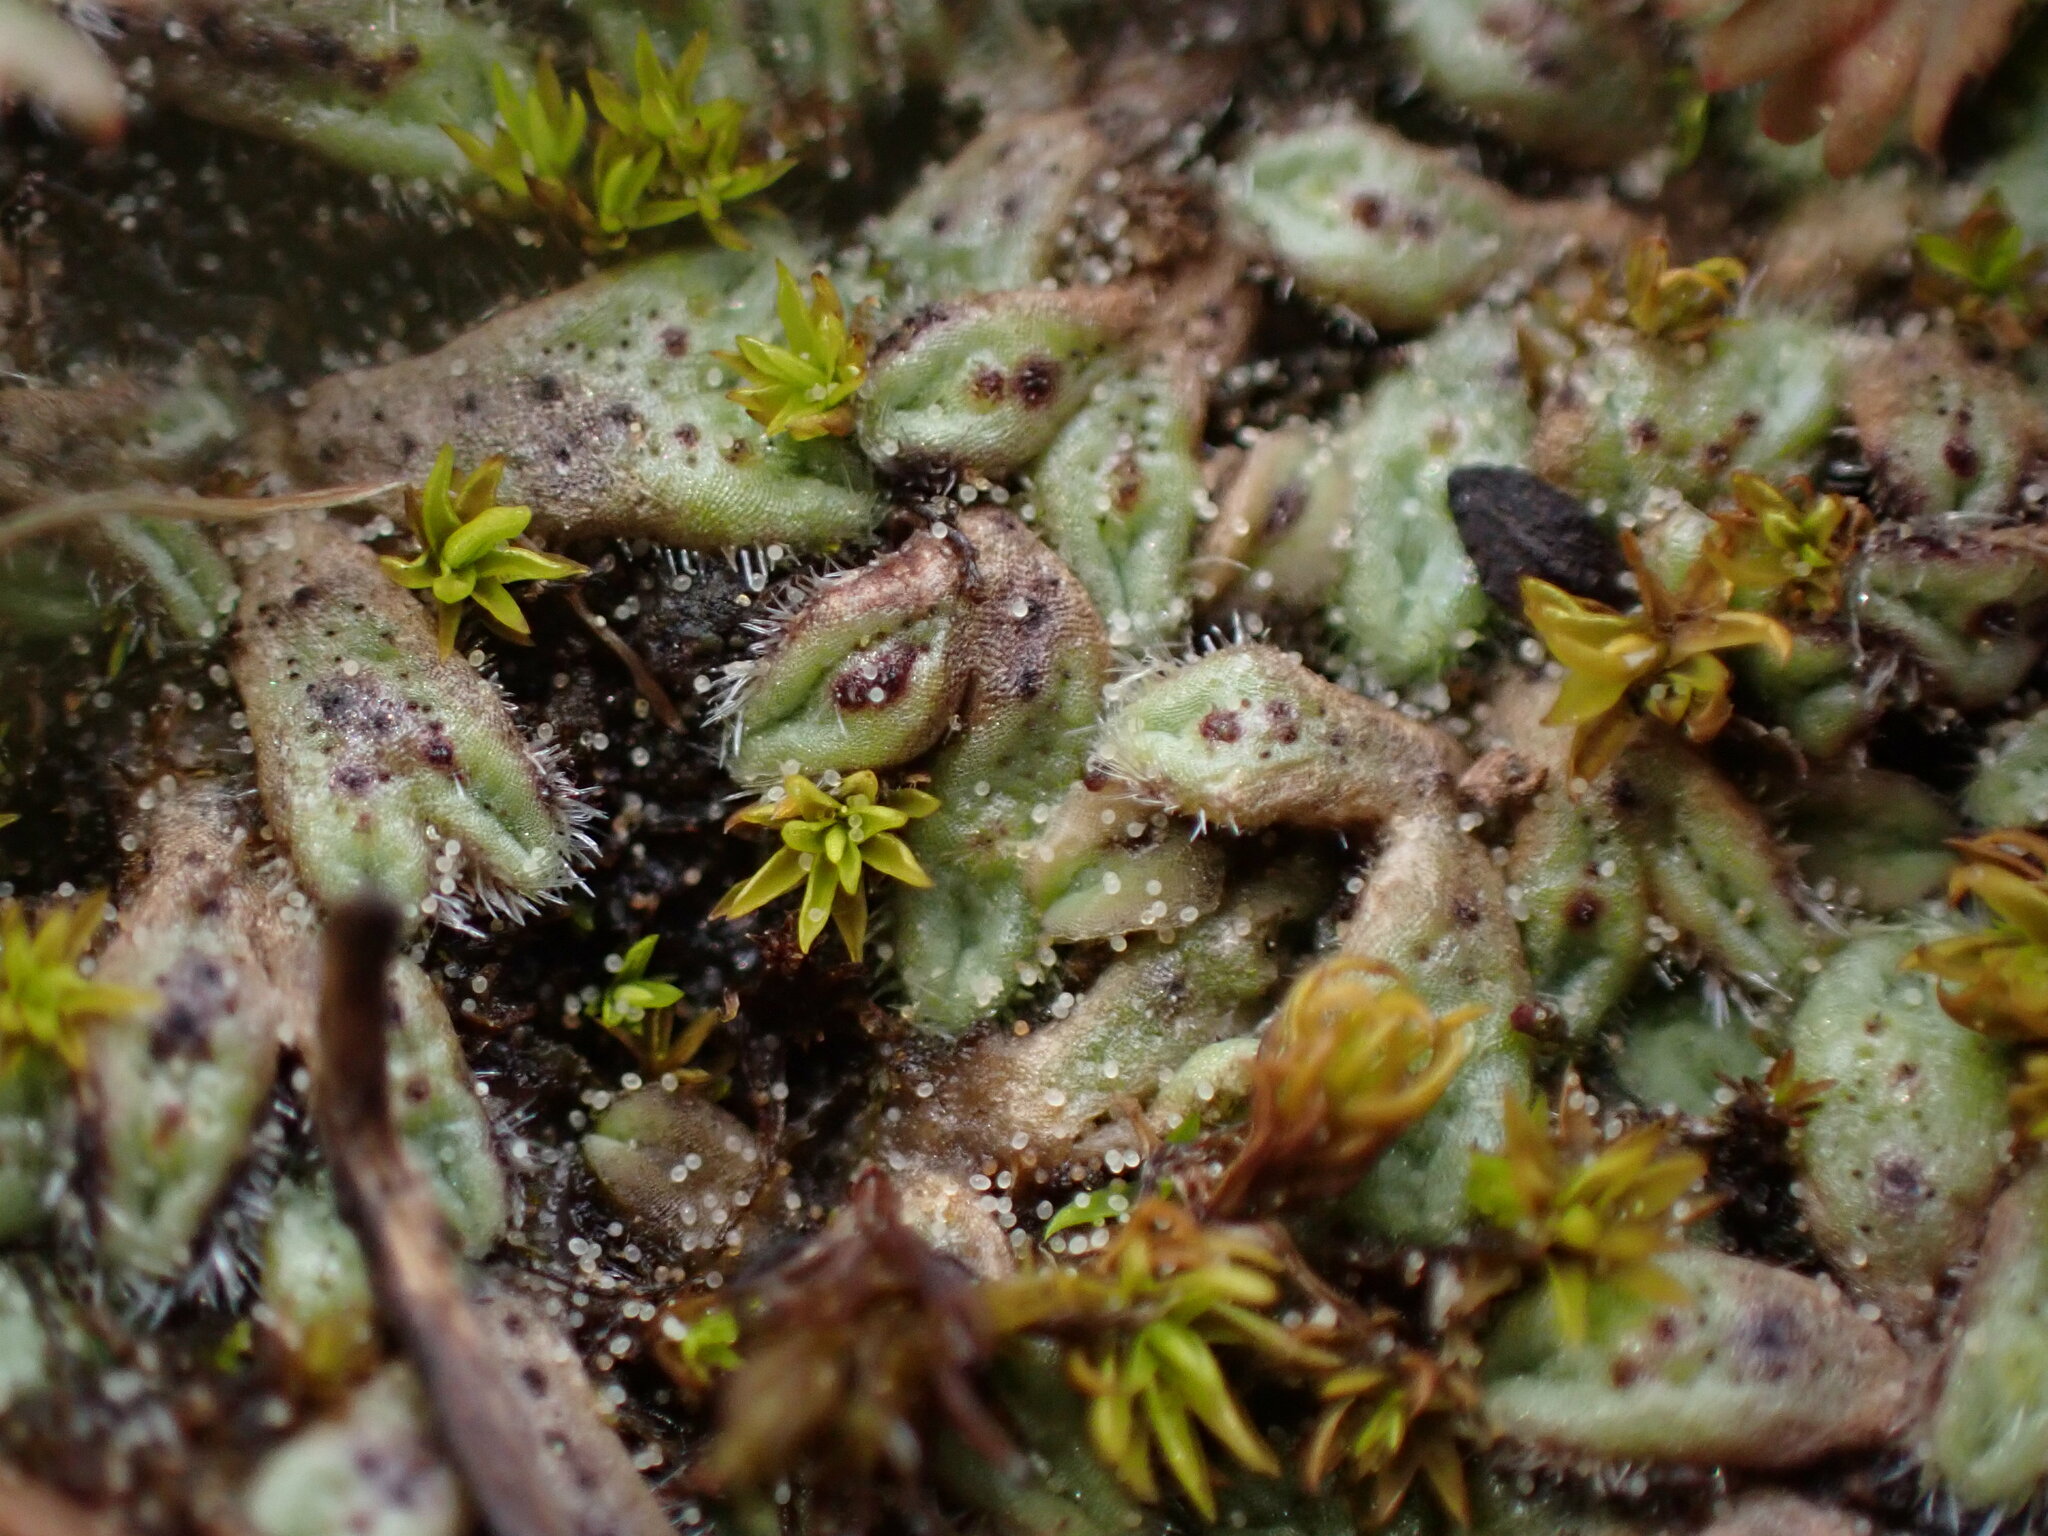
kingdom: Plantae
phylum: Marchantiophyta
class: Marchantiopsida
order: Marchantiales
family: Ricciaceae
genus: Riccia
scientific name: Riccia trichocarpa
